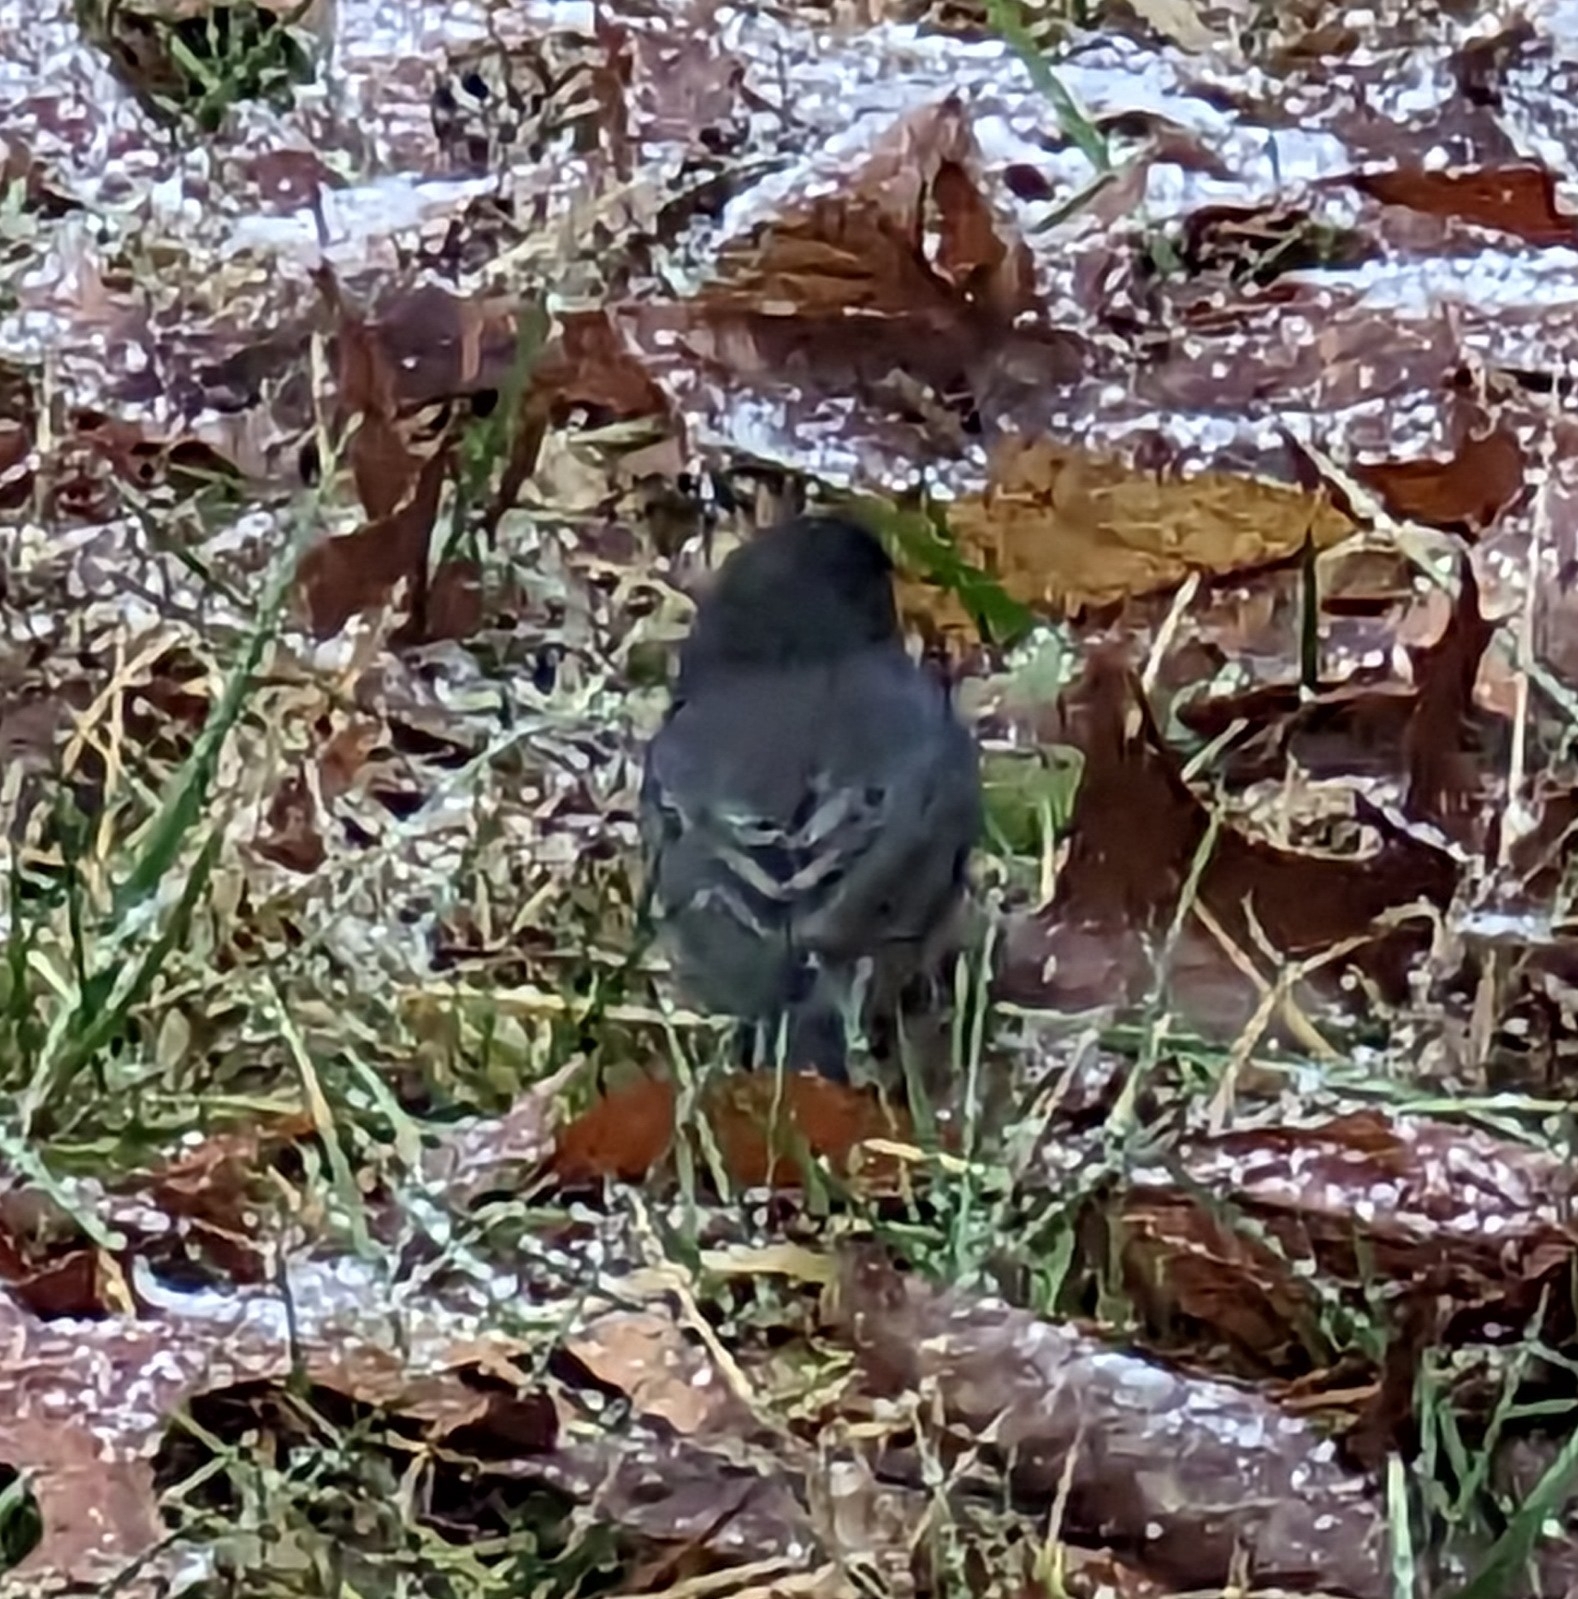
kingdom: Animalia
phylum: Chordata
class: Aves
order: Passeriformes
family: Passerellidae
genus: Junco
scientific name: Junco hyemalis
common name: Dark-eyed junco
